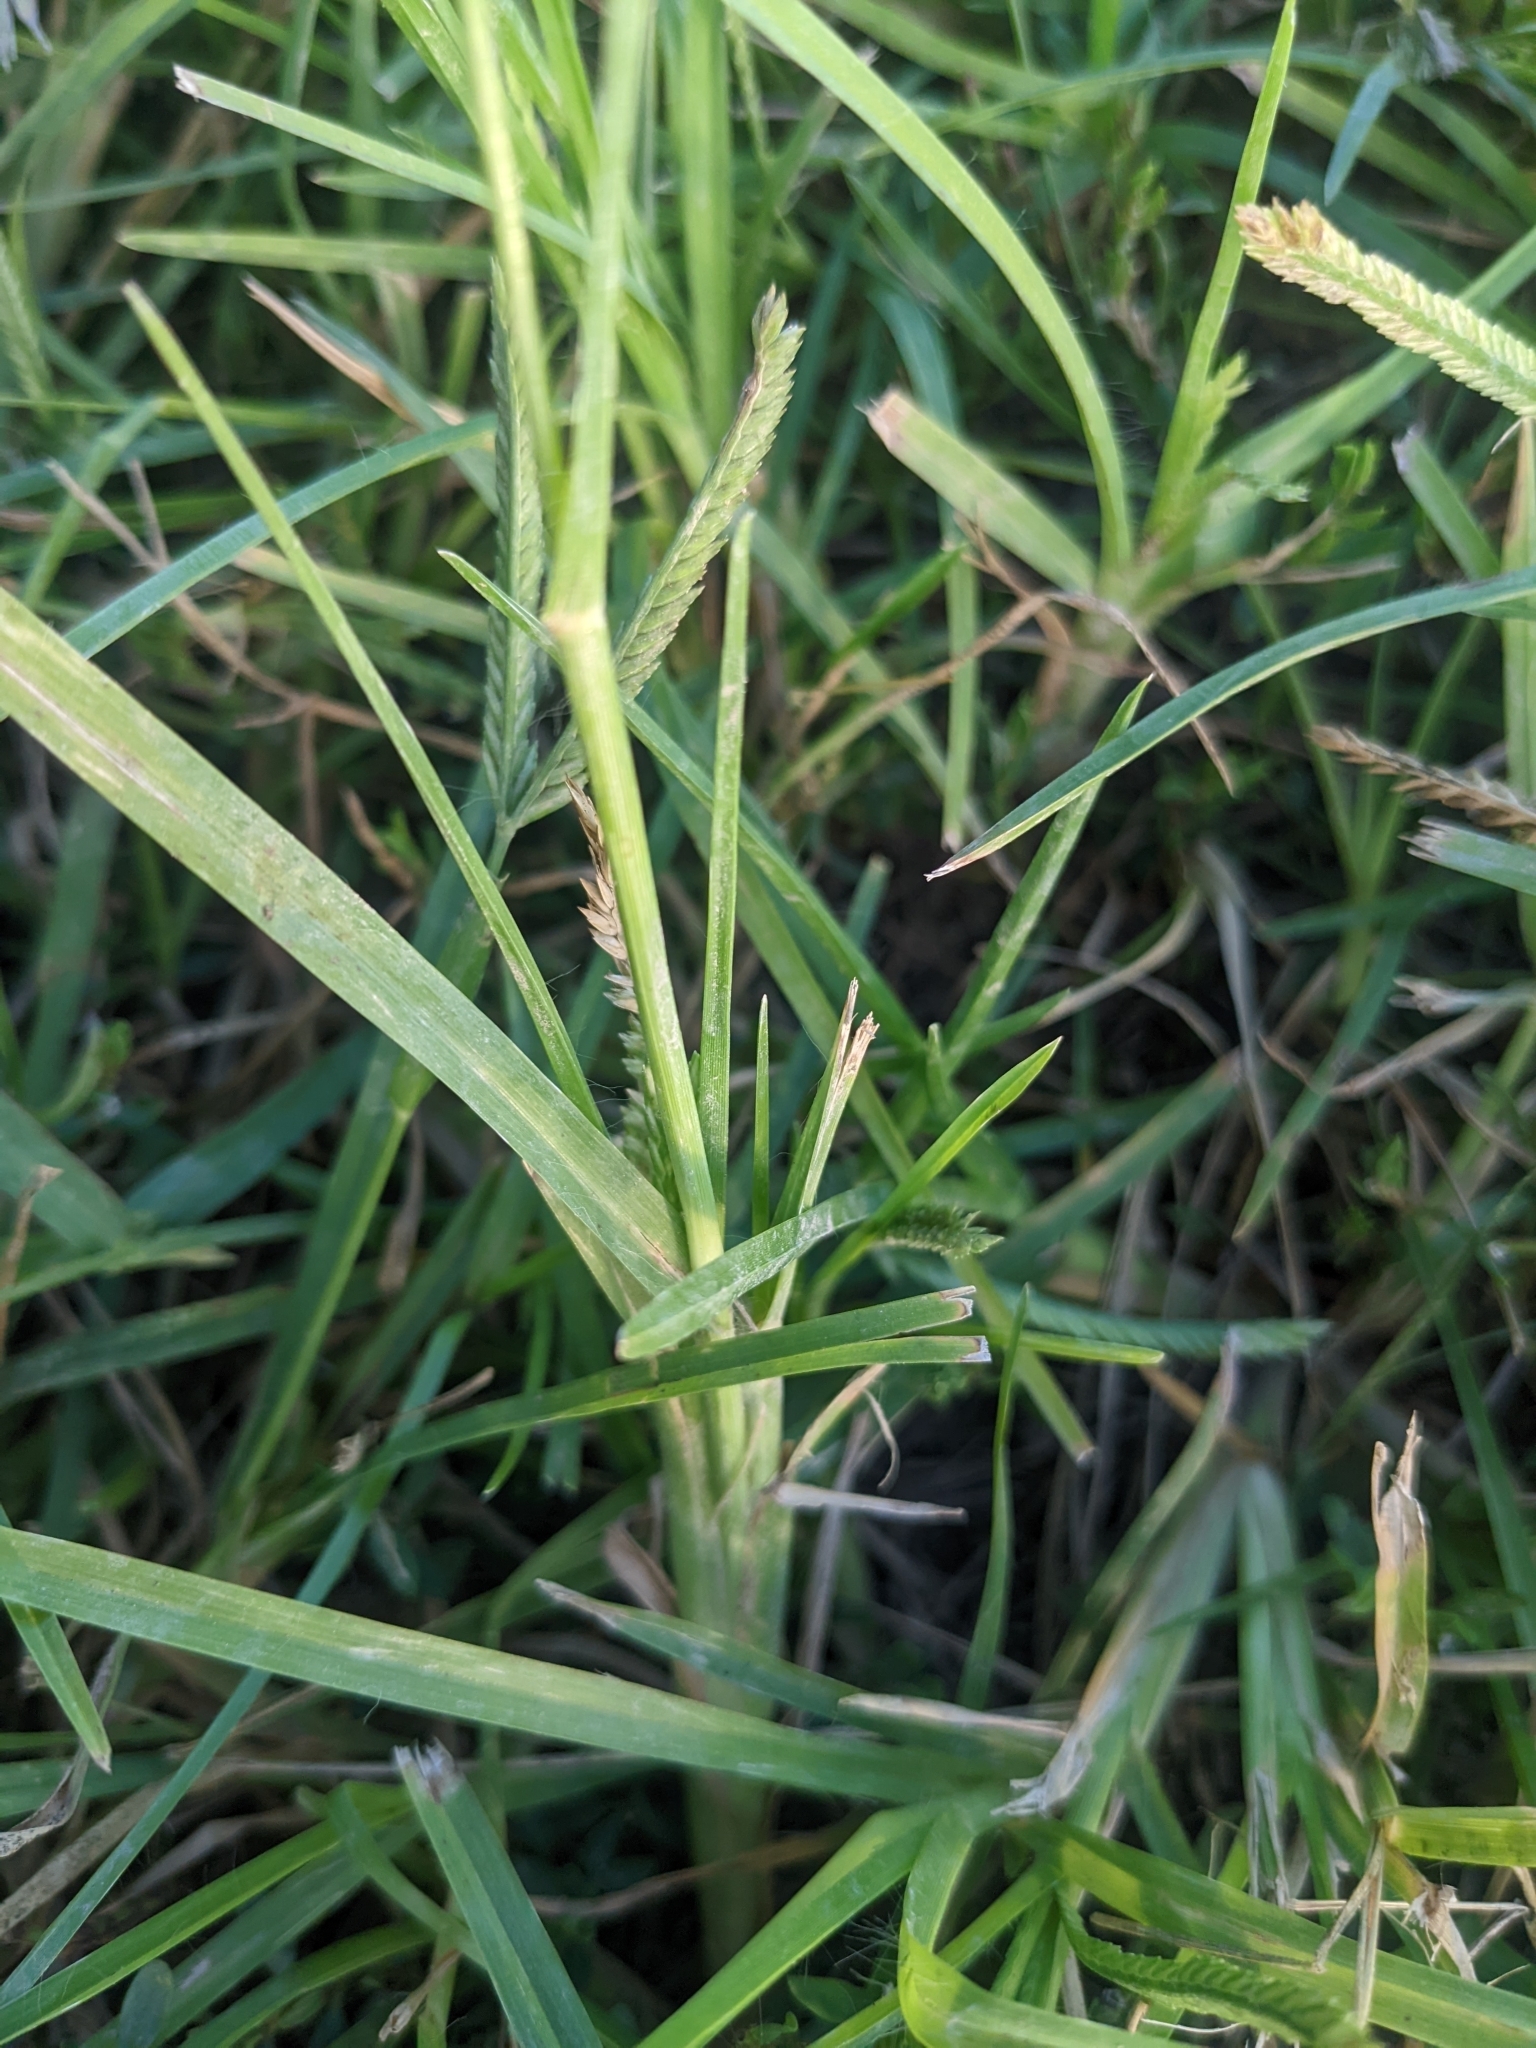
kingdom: Plantae
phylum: Tracheophyta
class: Liliopsida
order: Poales
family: Poaceae
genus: Eleusine
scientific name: Eleusine indica
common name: Yard-grass
